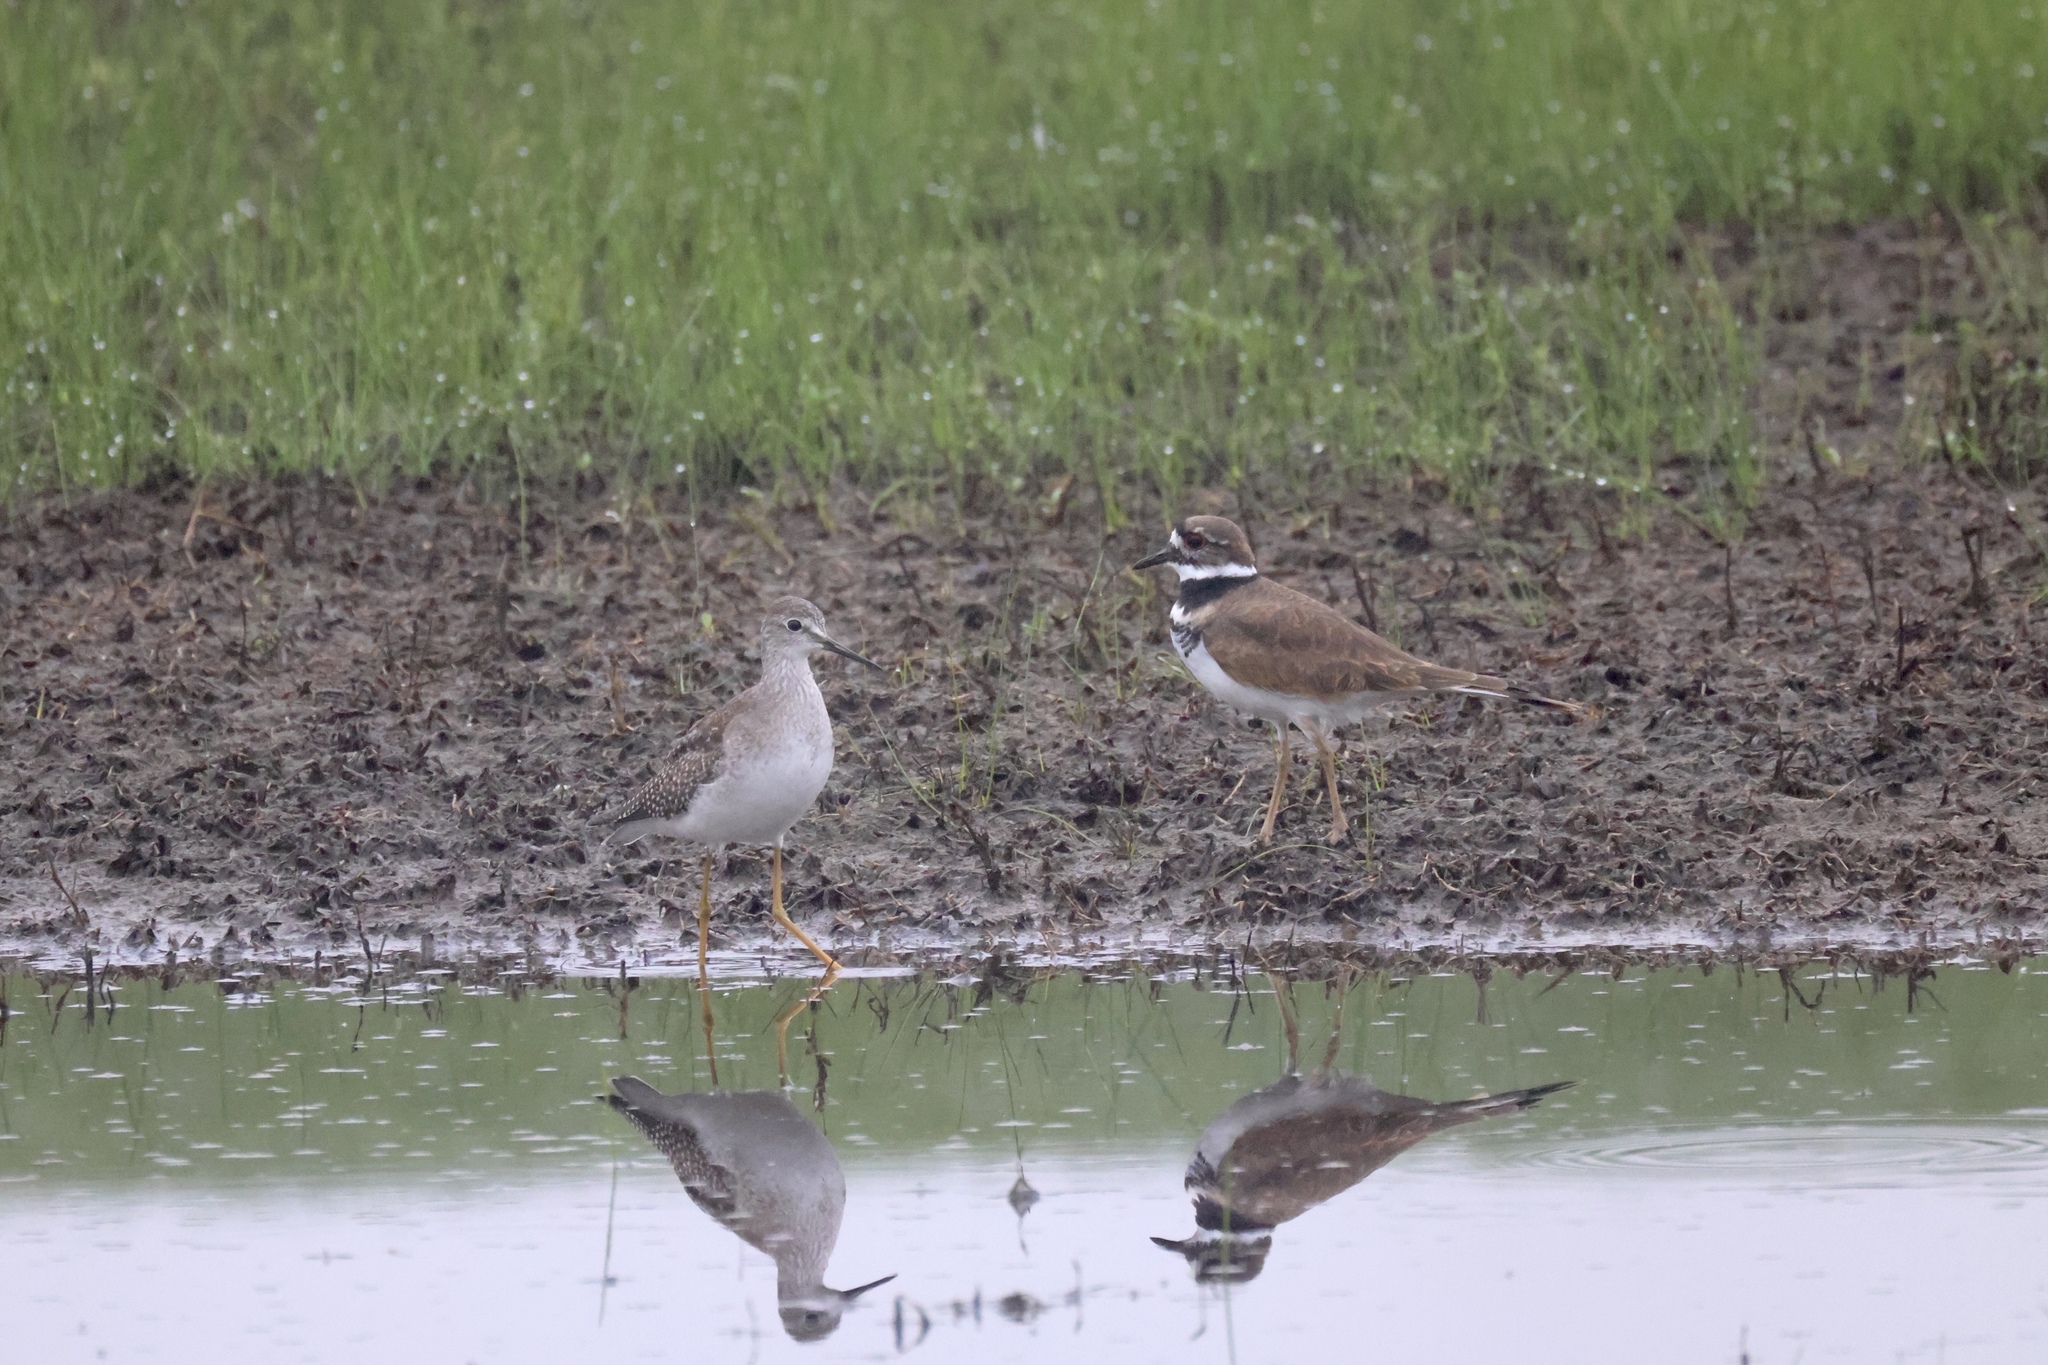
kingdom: Animalia
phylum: Chordata
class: Aves
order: Charadriiformes
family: Scolopacidae
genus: Tringa
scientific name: Tringa flavipes
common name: Lesser yellowlegs
